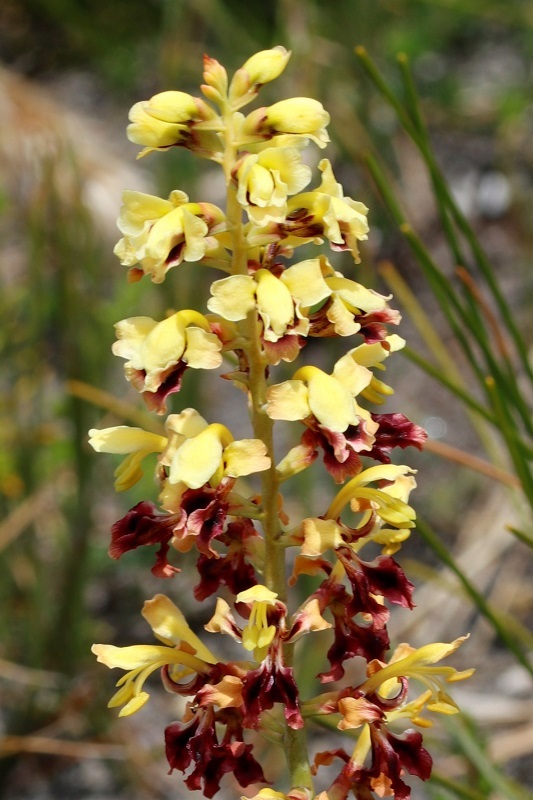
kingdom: Plantae
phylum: Tracheophyta
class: Liliopsida
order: Asparagales
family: Iridaceae
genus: Tritoniopsis
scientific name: Tritoniopsis parviflora
